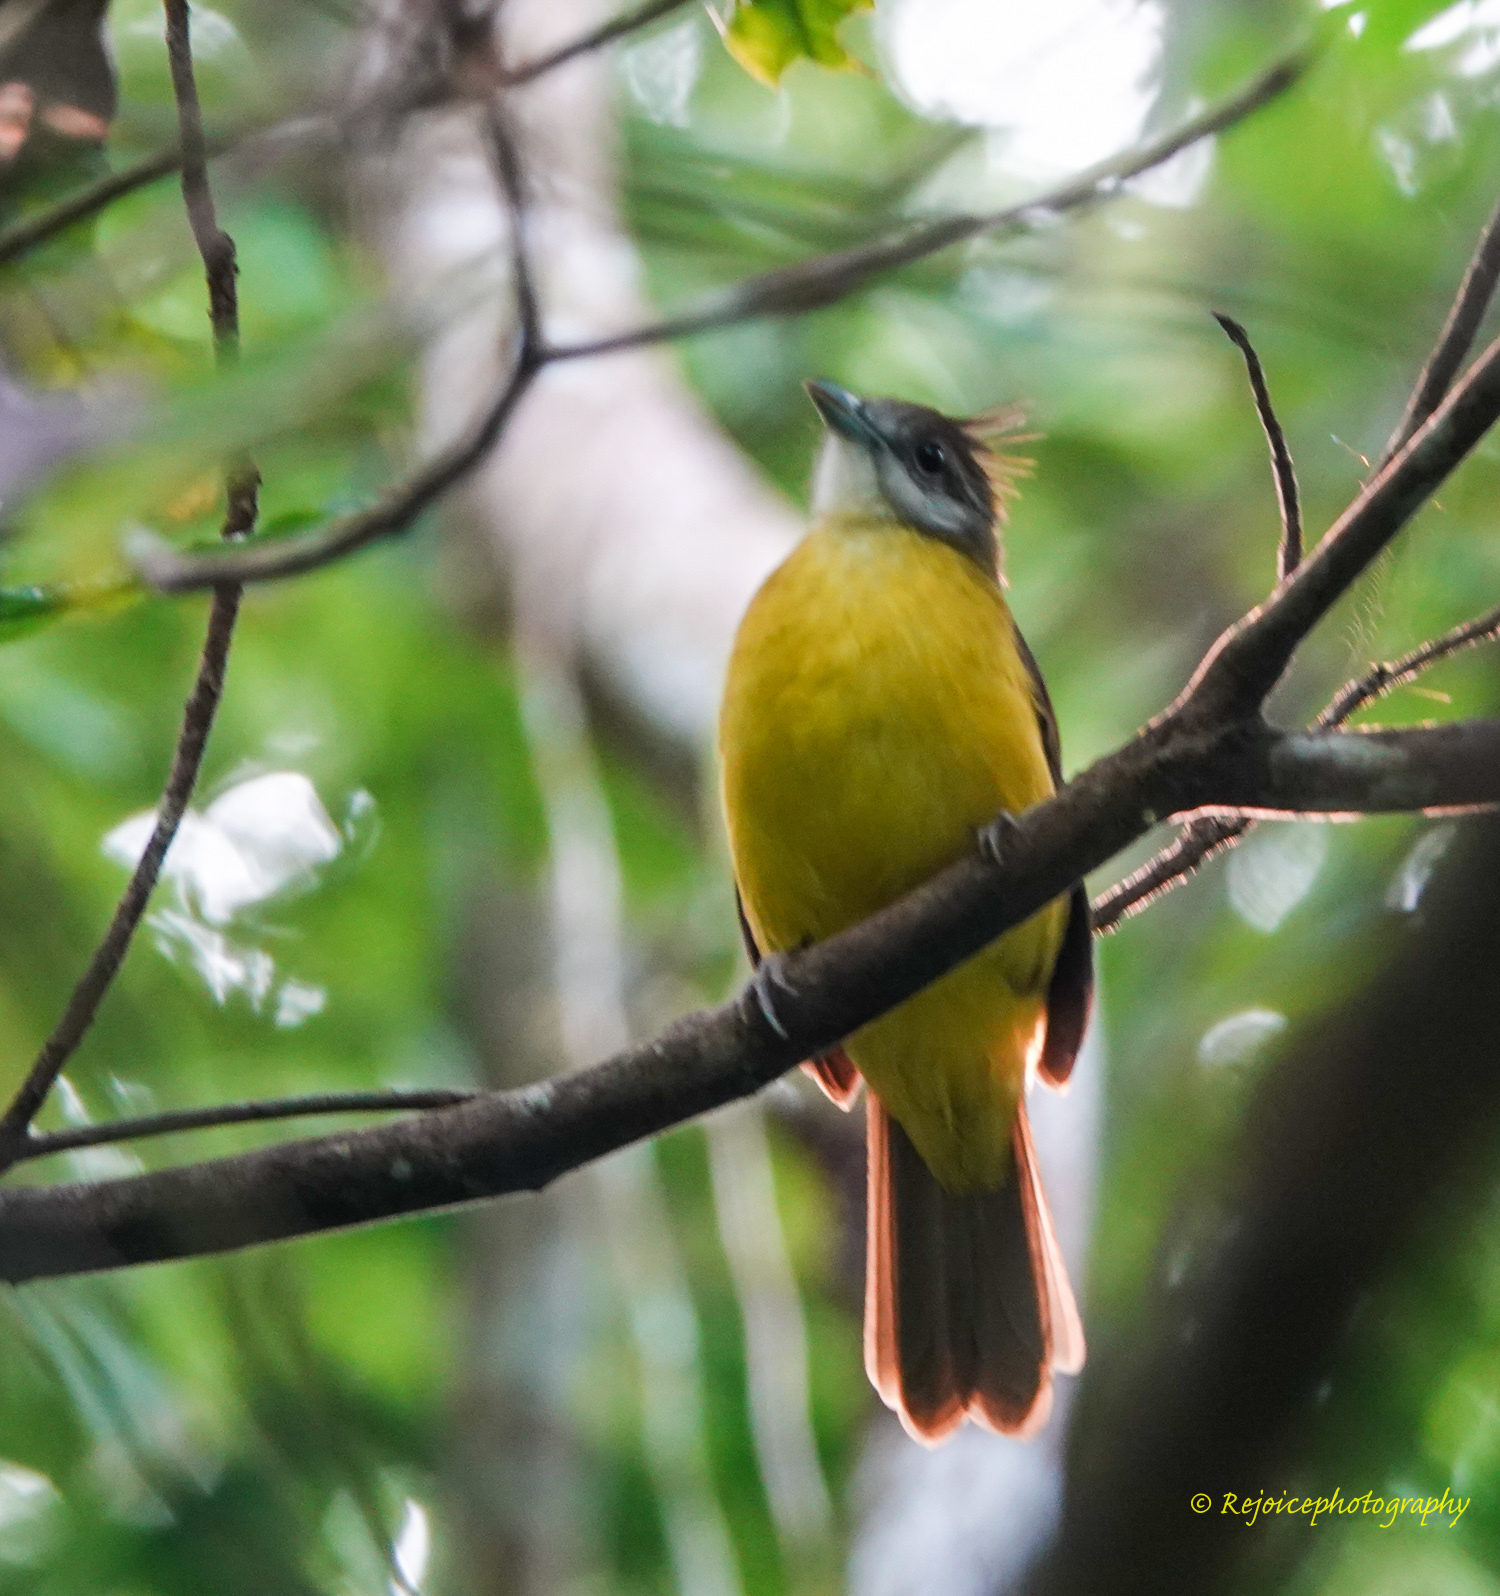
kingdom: Animalia
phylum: Chordata
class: Aves
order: Passeriformes
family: Pycnonotidae
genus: Alophoixus
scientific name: Alophoixus flaveolus
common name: White-throated bulbul
